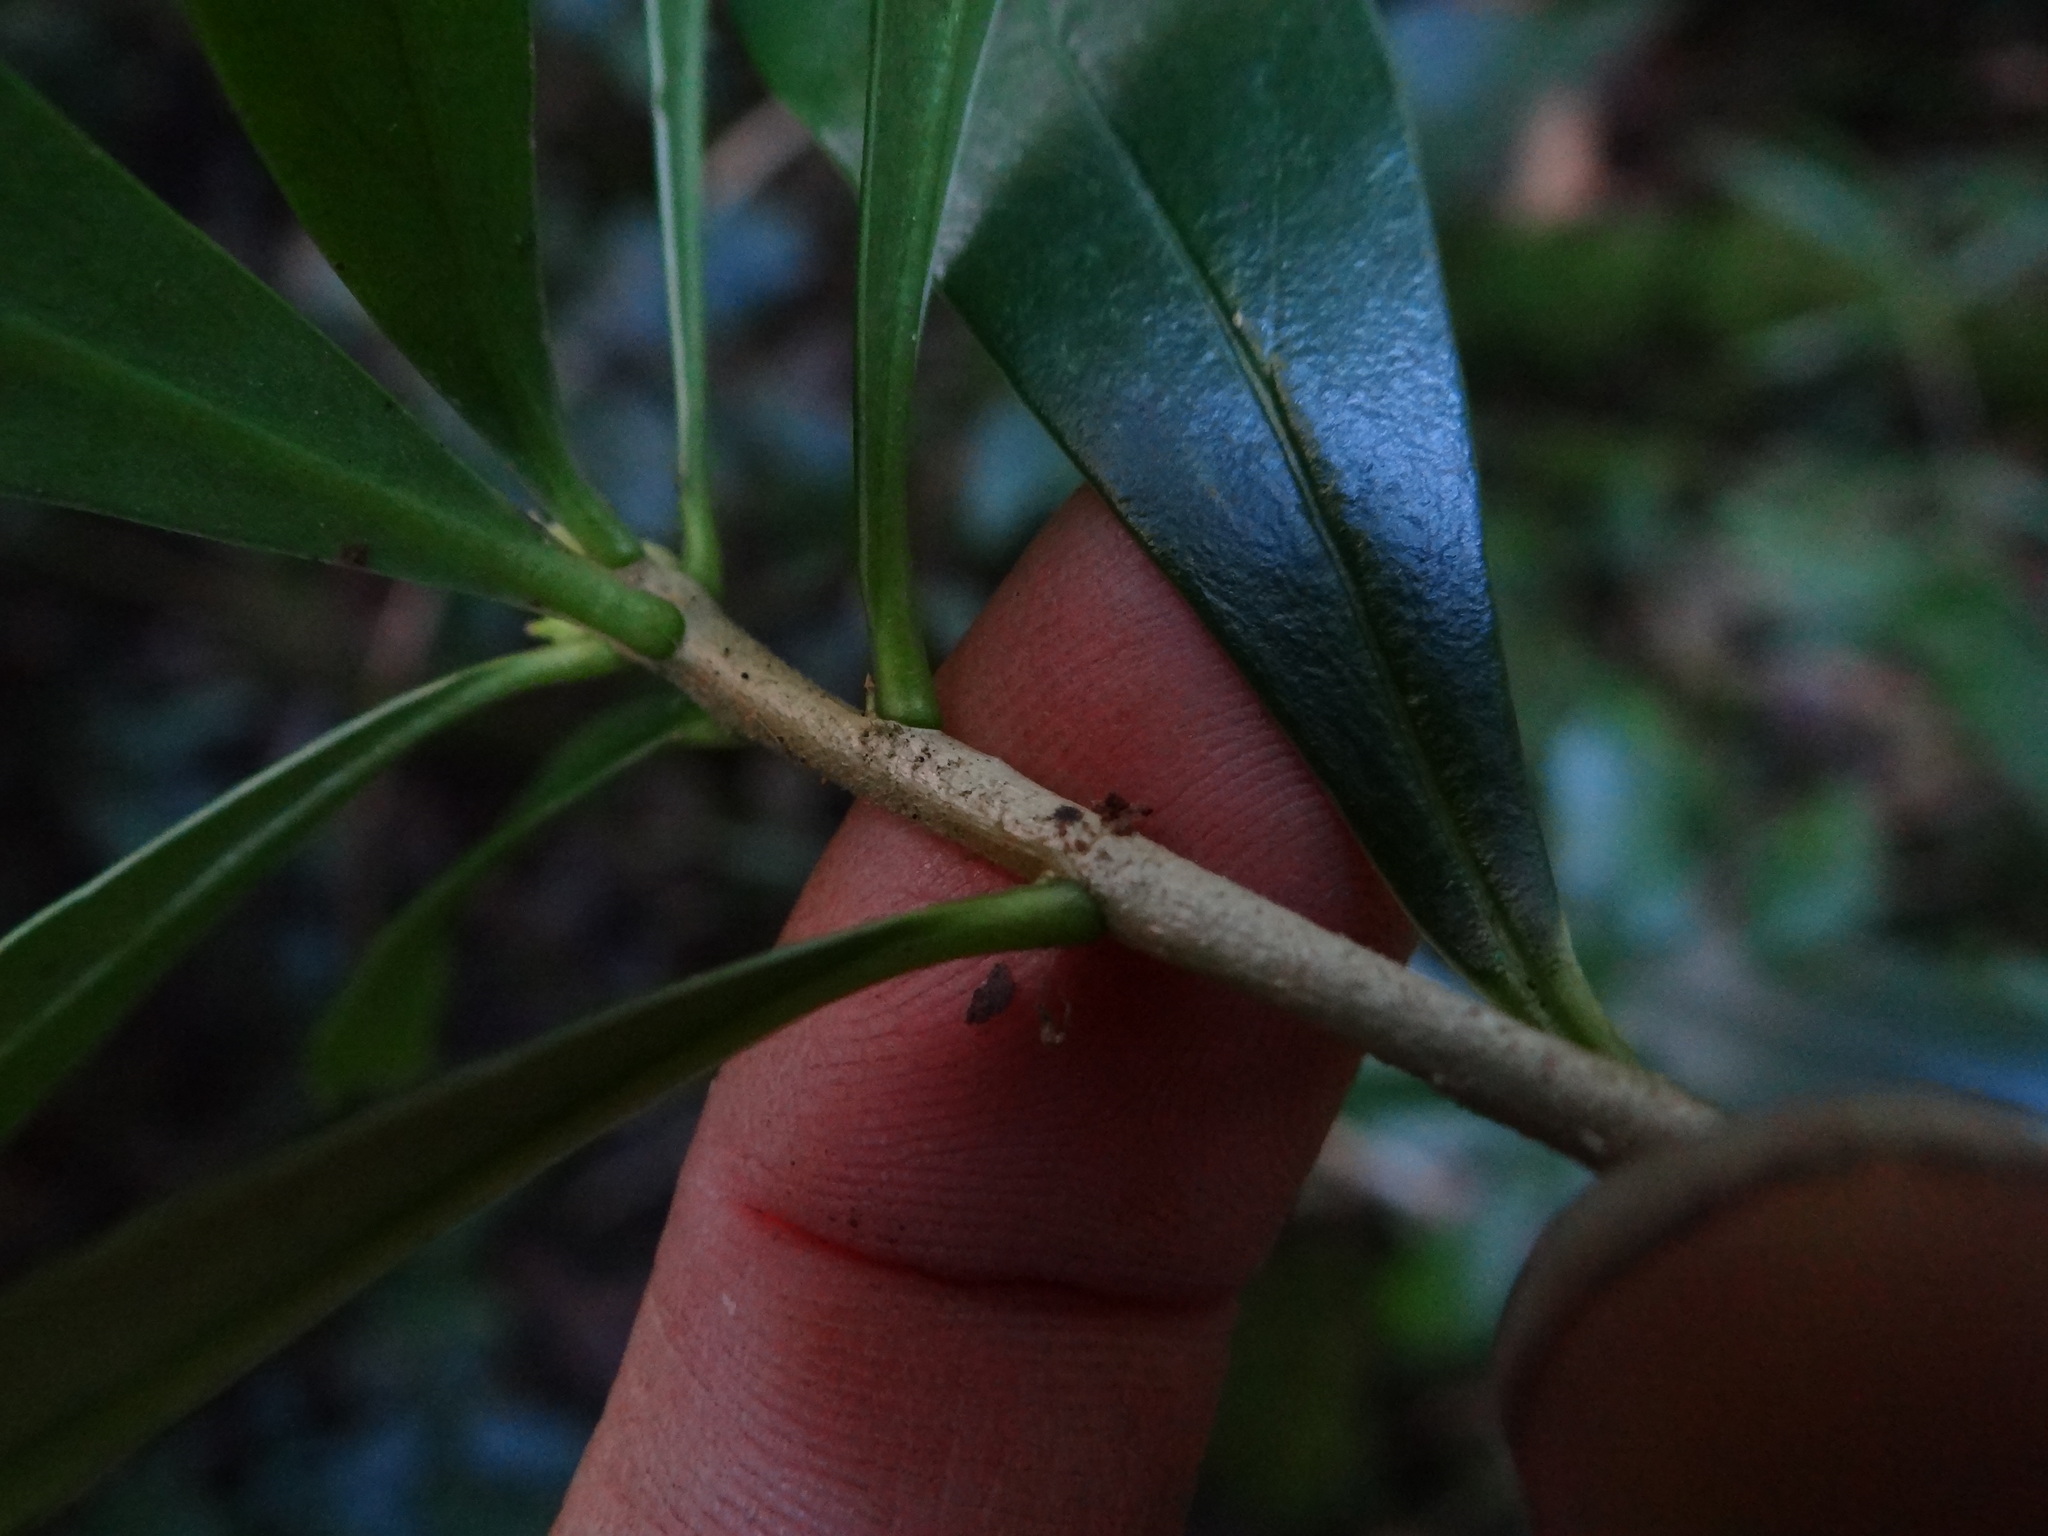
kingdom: Plantae
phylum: Tracheophyta
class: Magnoliopsida
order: Malvales
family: Thymelaeaceae
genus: Daphne
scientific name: Daphne kiusiana
